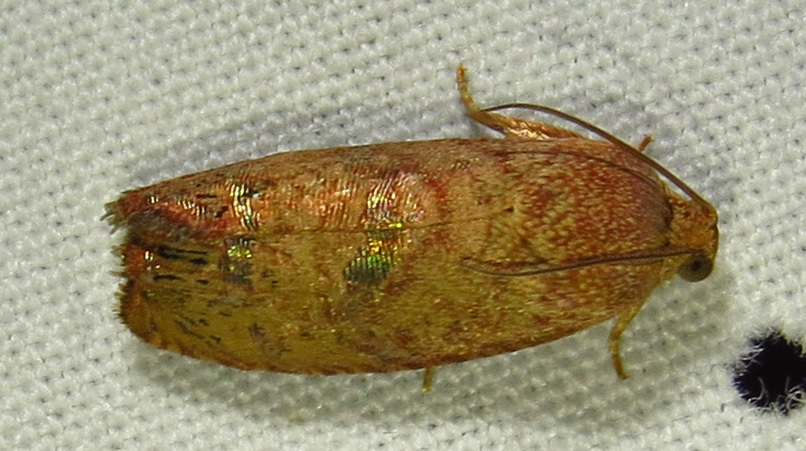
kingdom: Animalia
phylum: Arthropoda
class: Insecta
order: Lepidoptera
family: Tortricidae
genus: Cydia
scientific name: Cydia latiferreana
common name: Filbertworm moth
